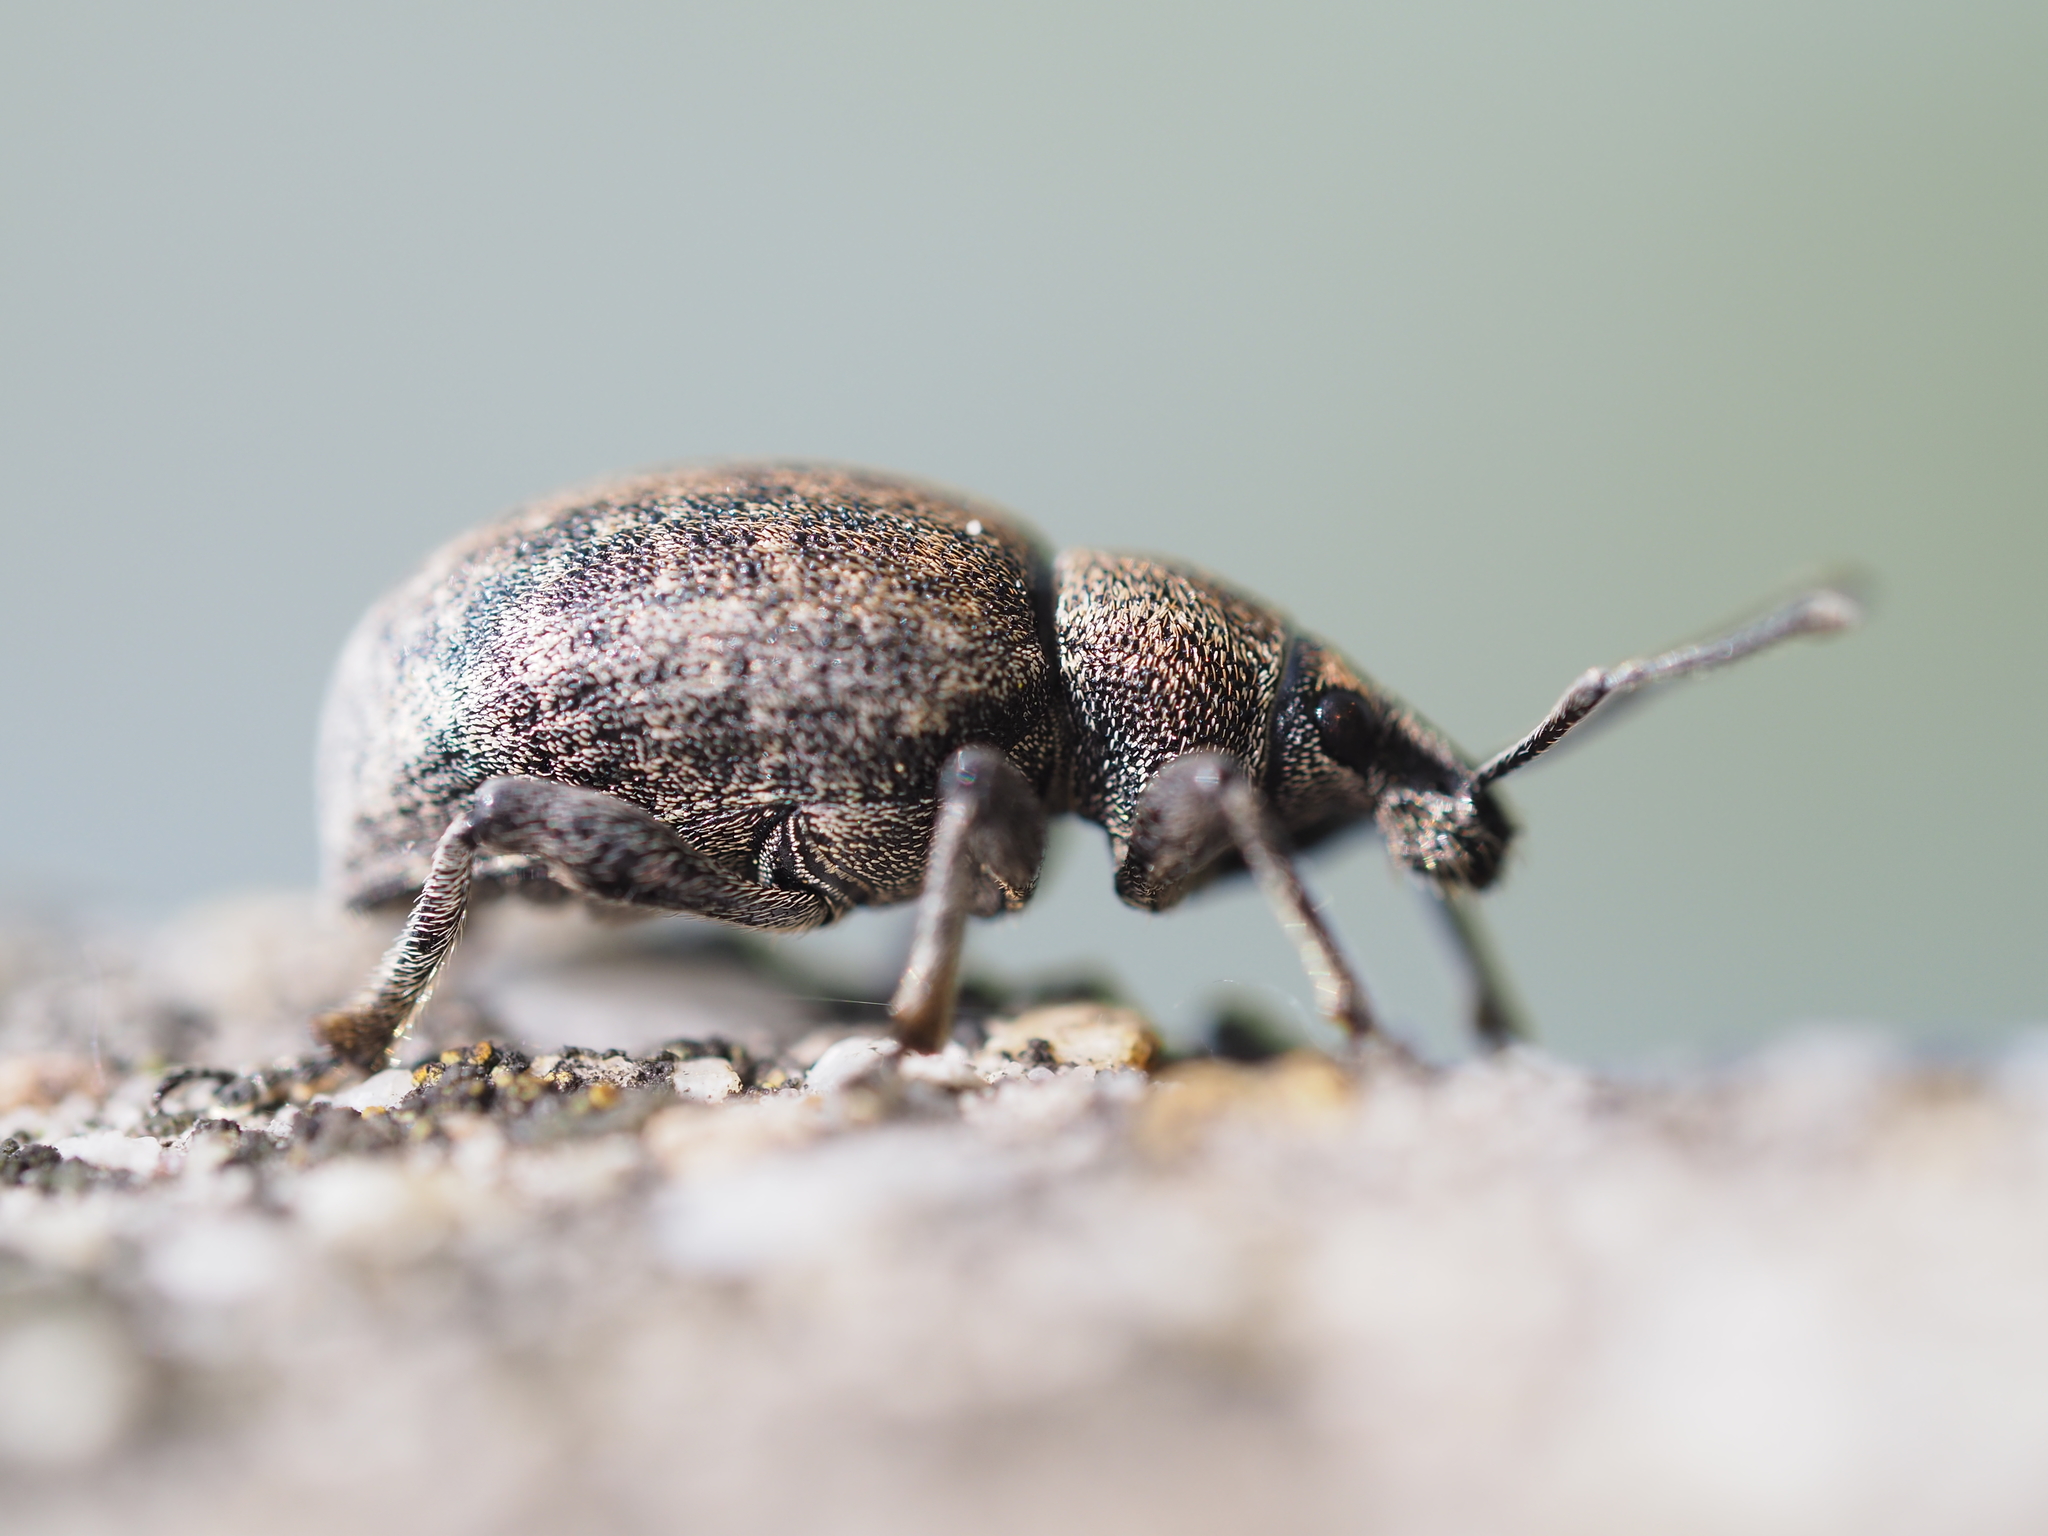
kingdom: Animalia
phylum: Arthropoda
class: Insecta
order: Coleoptera
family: Curculionidae
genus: Otiorhynchus
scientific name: Otiorhynchus ligustici
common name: Weevil
